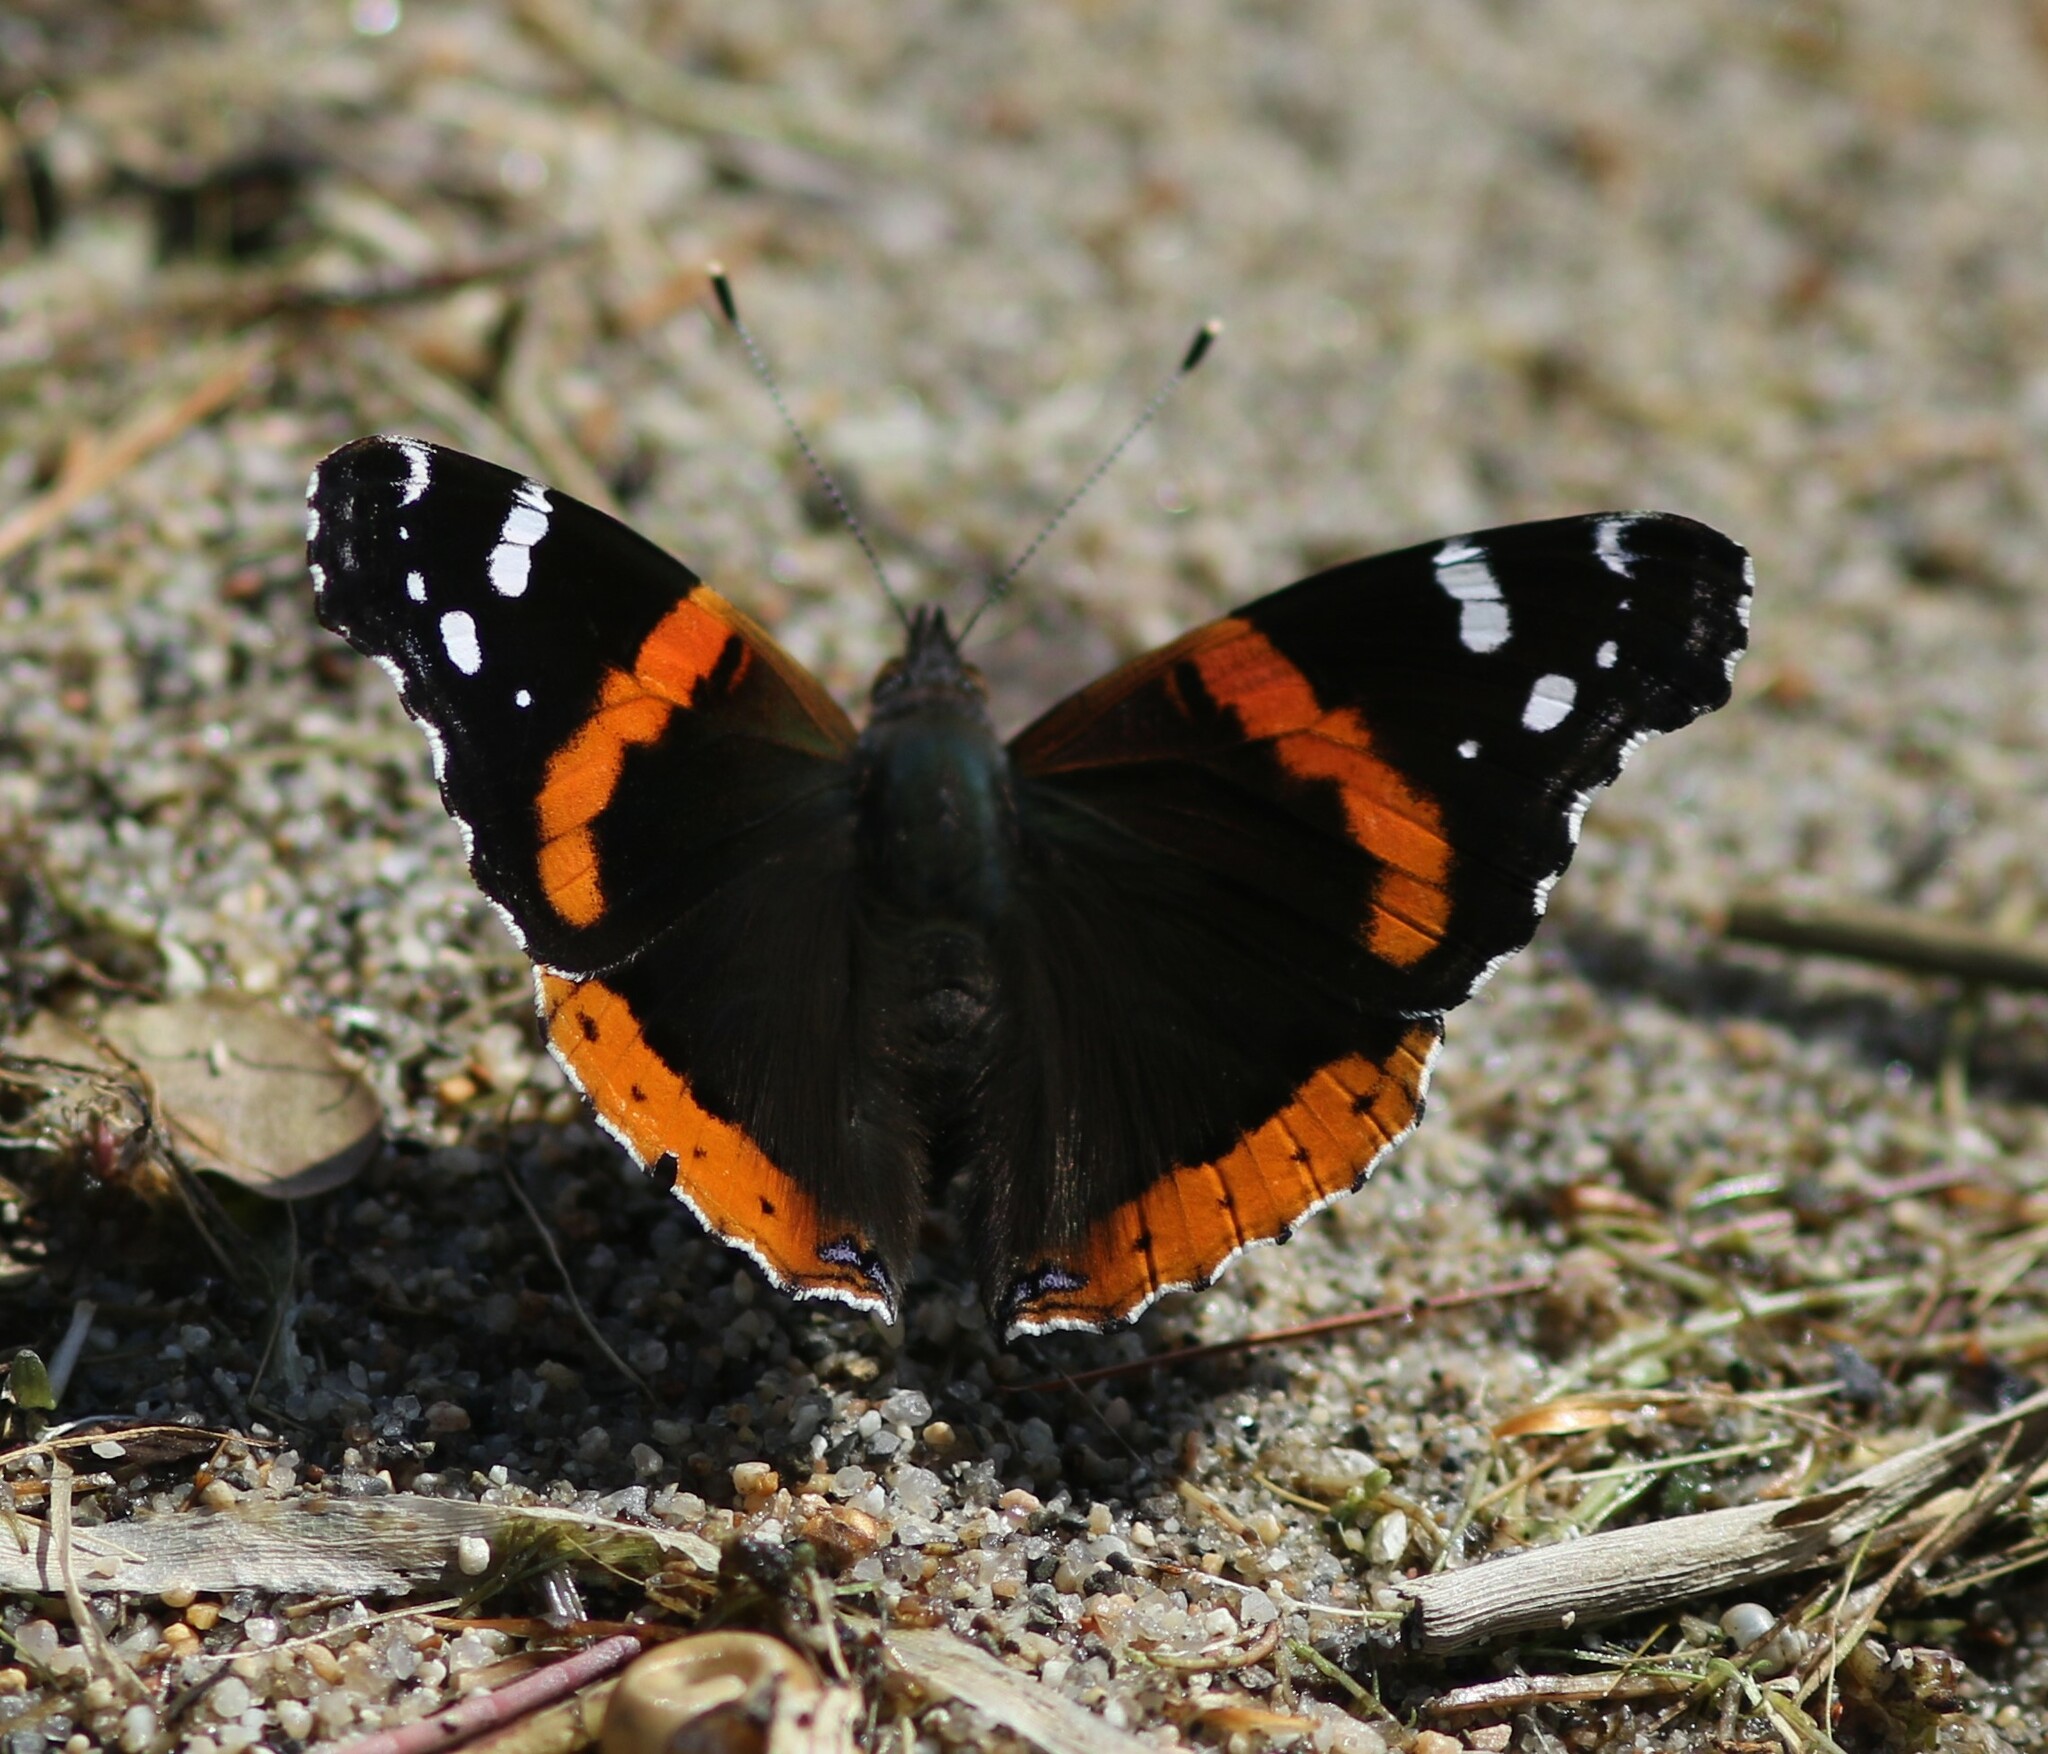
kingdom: Animalia
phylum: Arthropoda
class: Insecta
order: Lepidoptera
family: Nymphalidae
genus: Vanessa
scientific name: Vanessa atalanta
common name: Red admiral
